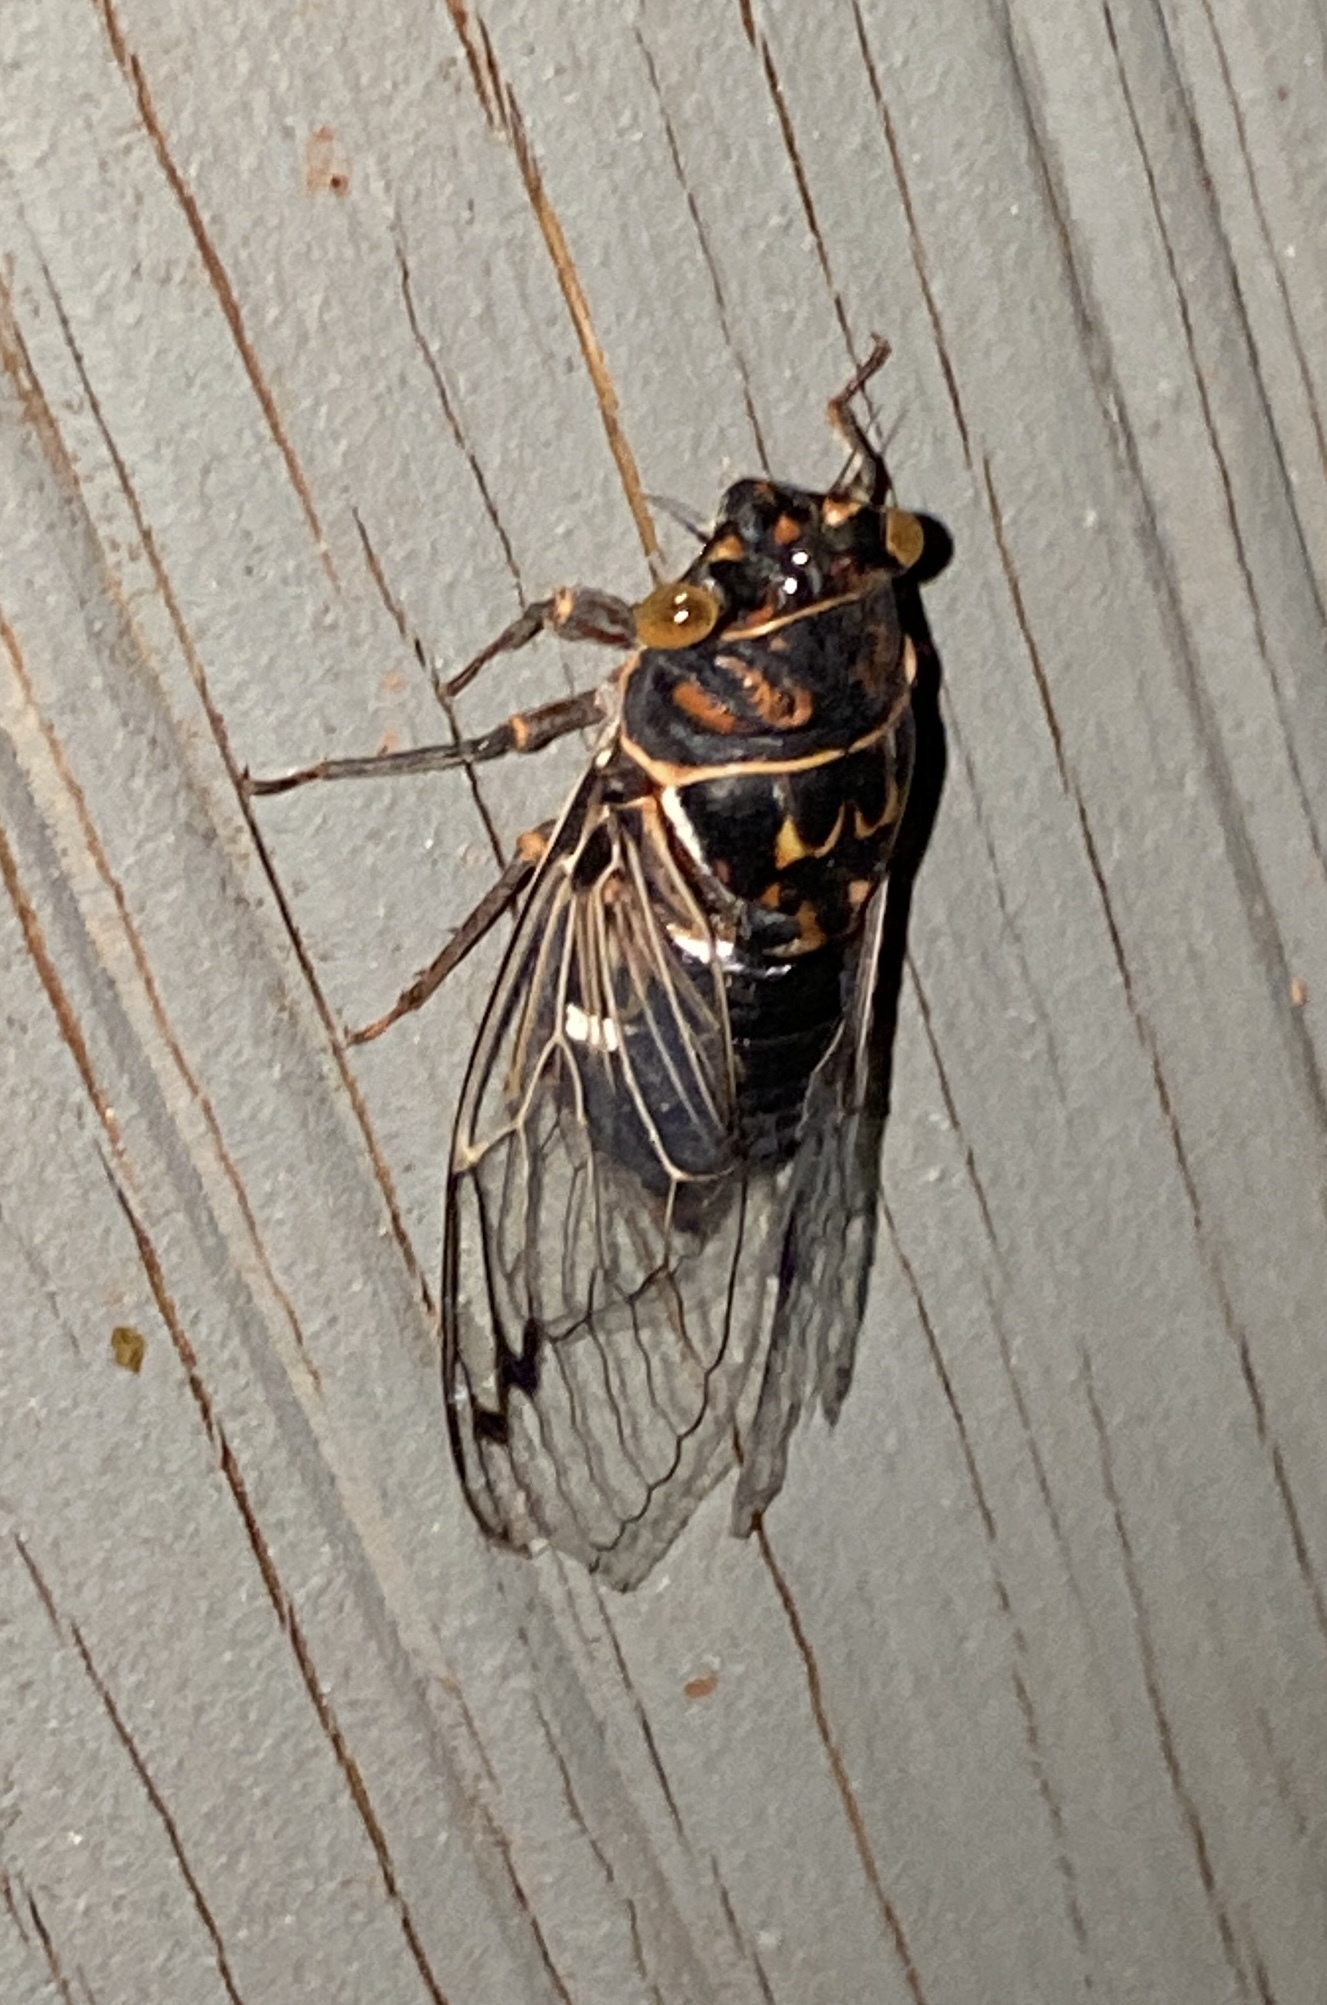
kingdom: Animalia
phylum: Arthropoda
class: Insecta
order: Hemiptera
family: Cicadidae
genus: Hadoa
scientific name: Hadoa duryi
